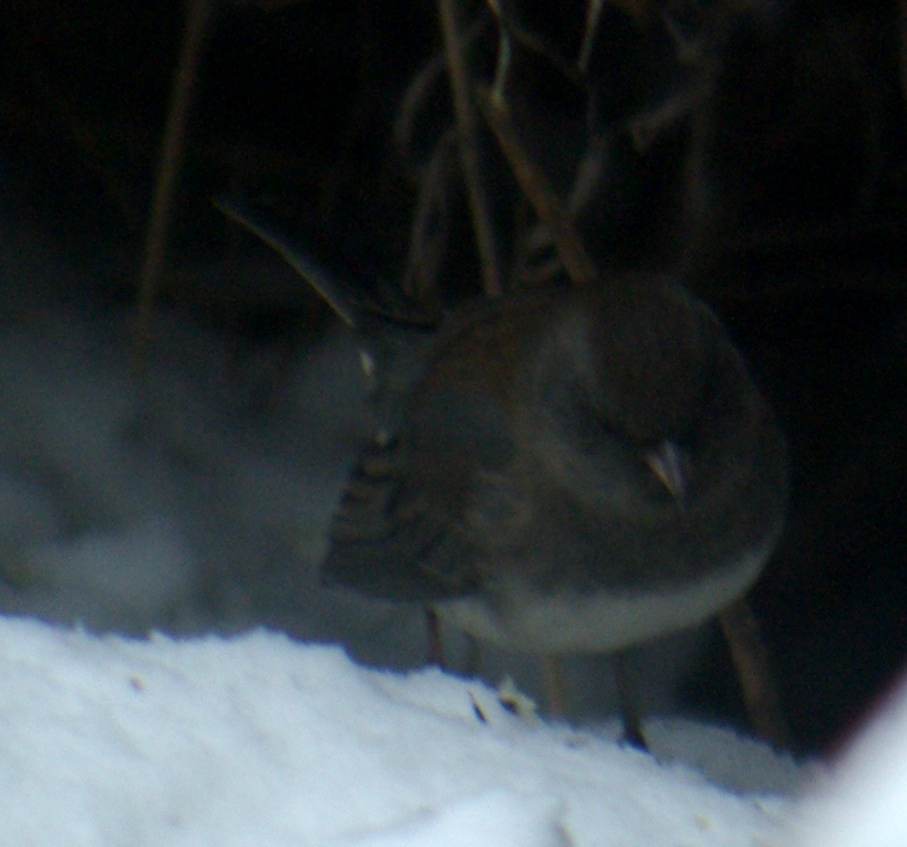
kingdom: Animalia
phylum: Chordata
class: Aves
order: Passeriformes
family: Passerellidae
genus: Junco
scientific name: Junco hyemalis
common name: Dark-eyed junco
